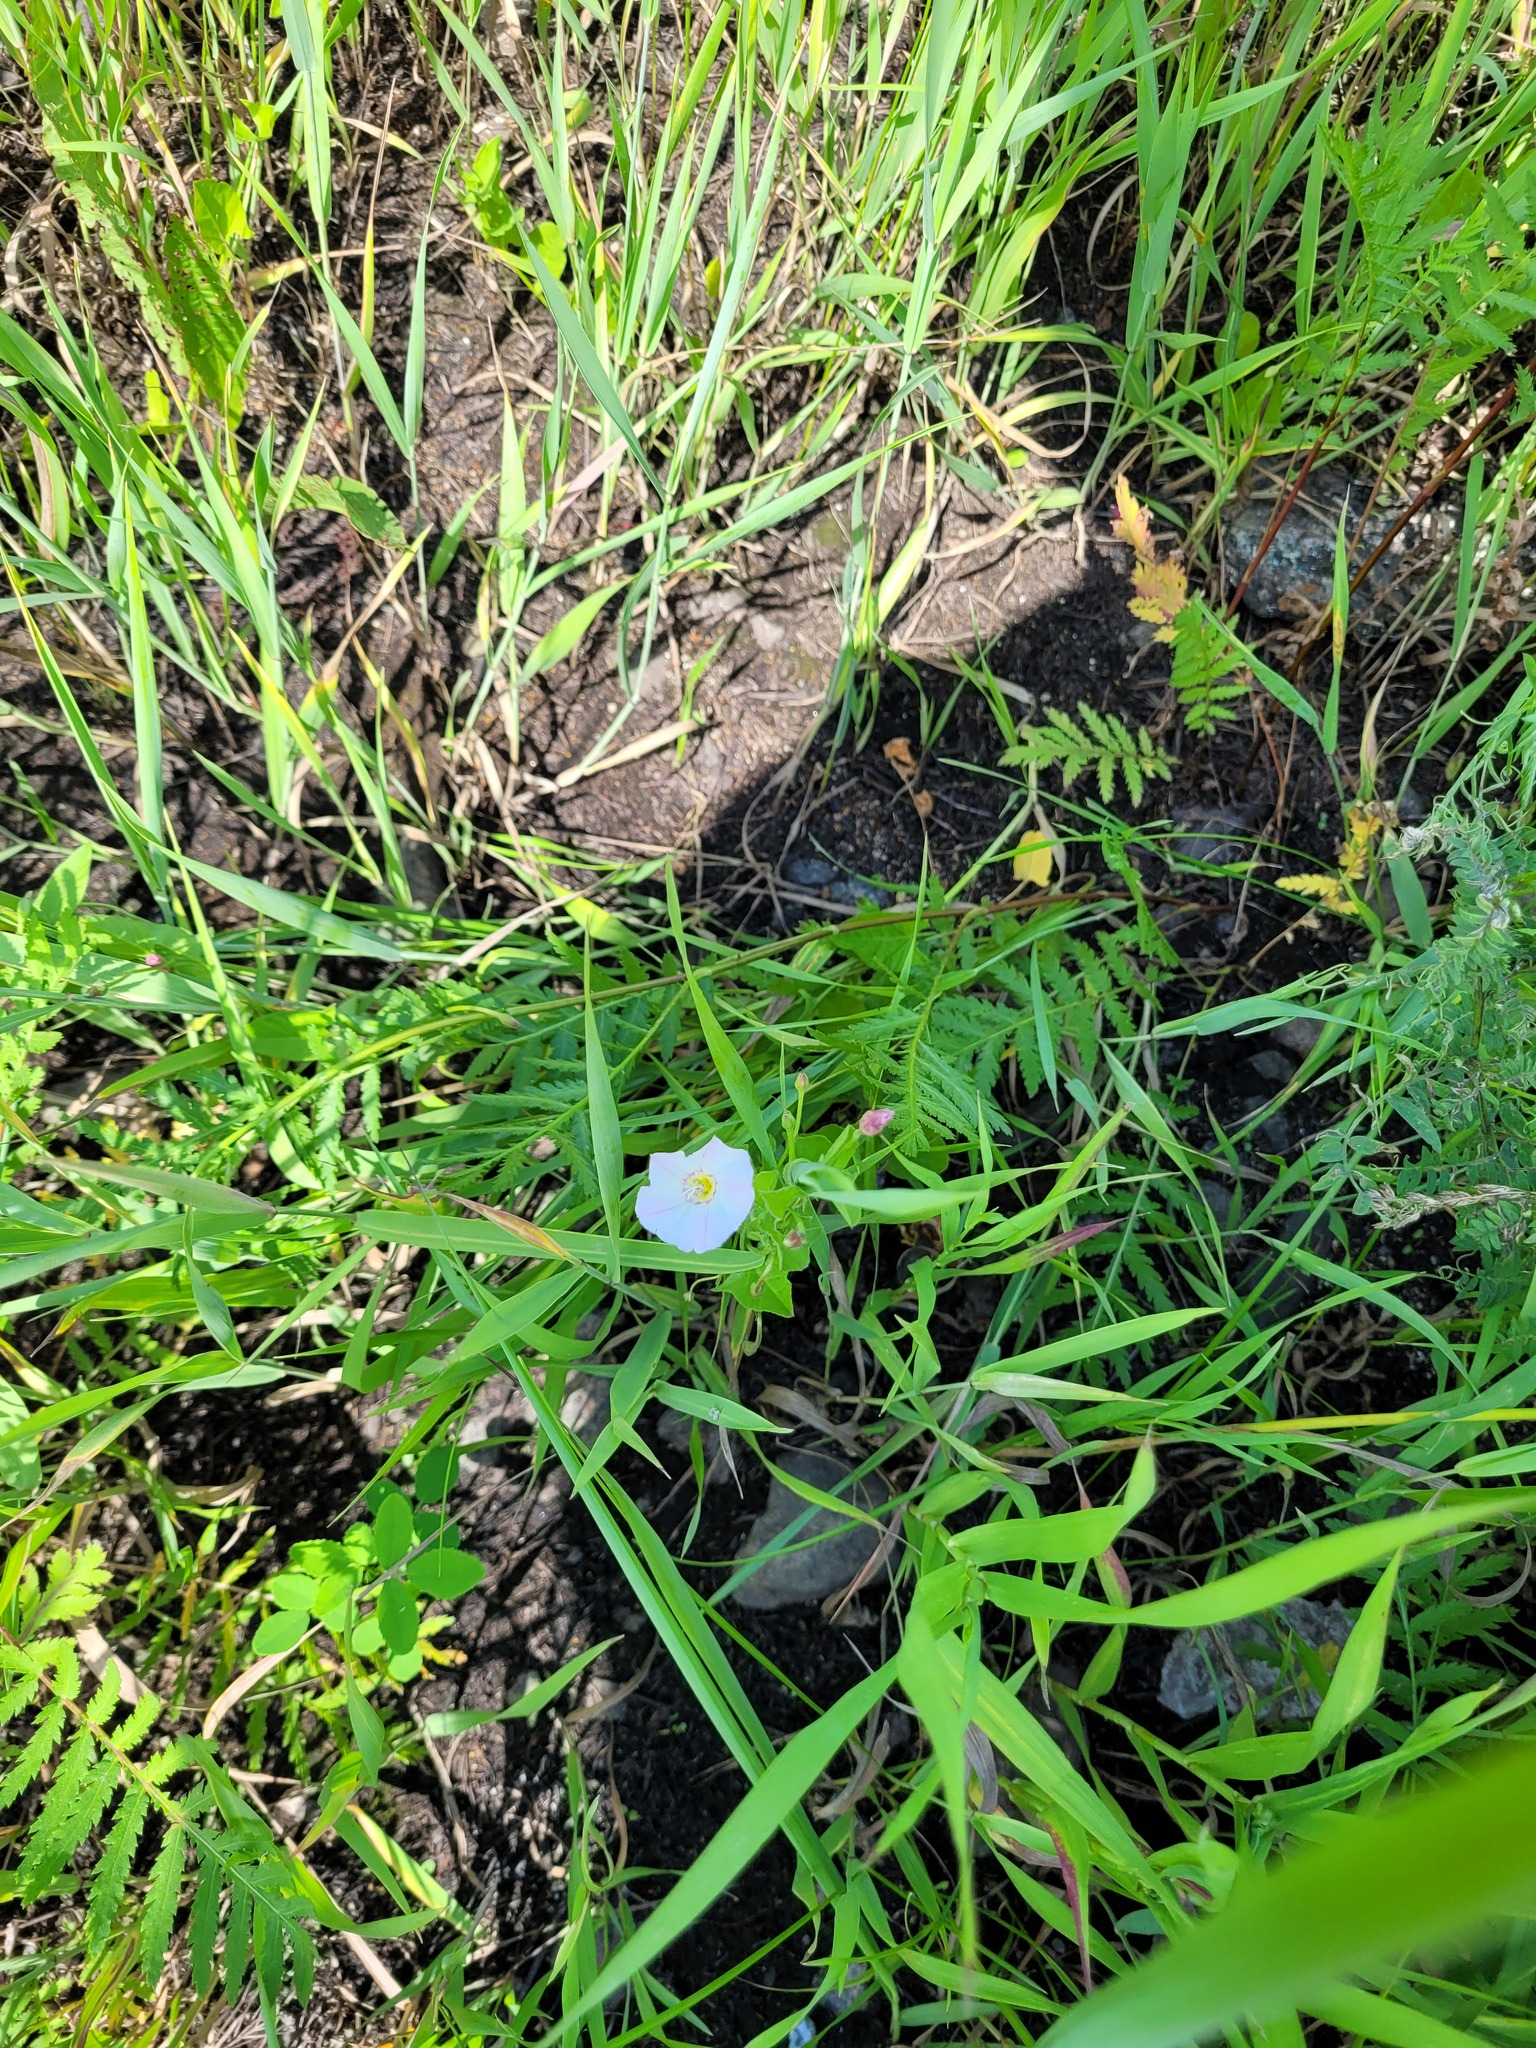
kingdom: Plantae
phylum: Tracheophyta
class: Magnoliopsida
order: Solanales
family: Convolvulaceae
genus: Convolvulus
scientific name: Convolvulus arvensis
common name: Field bindweed
